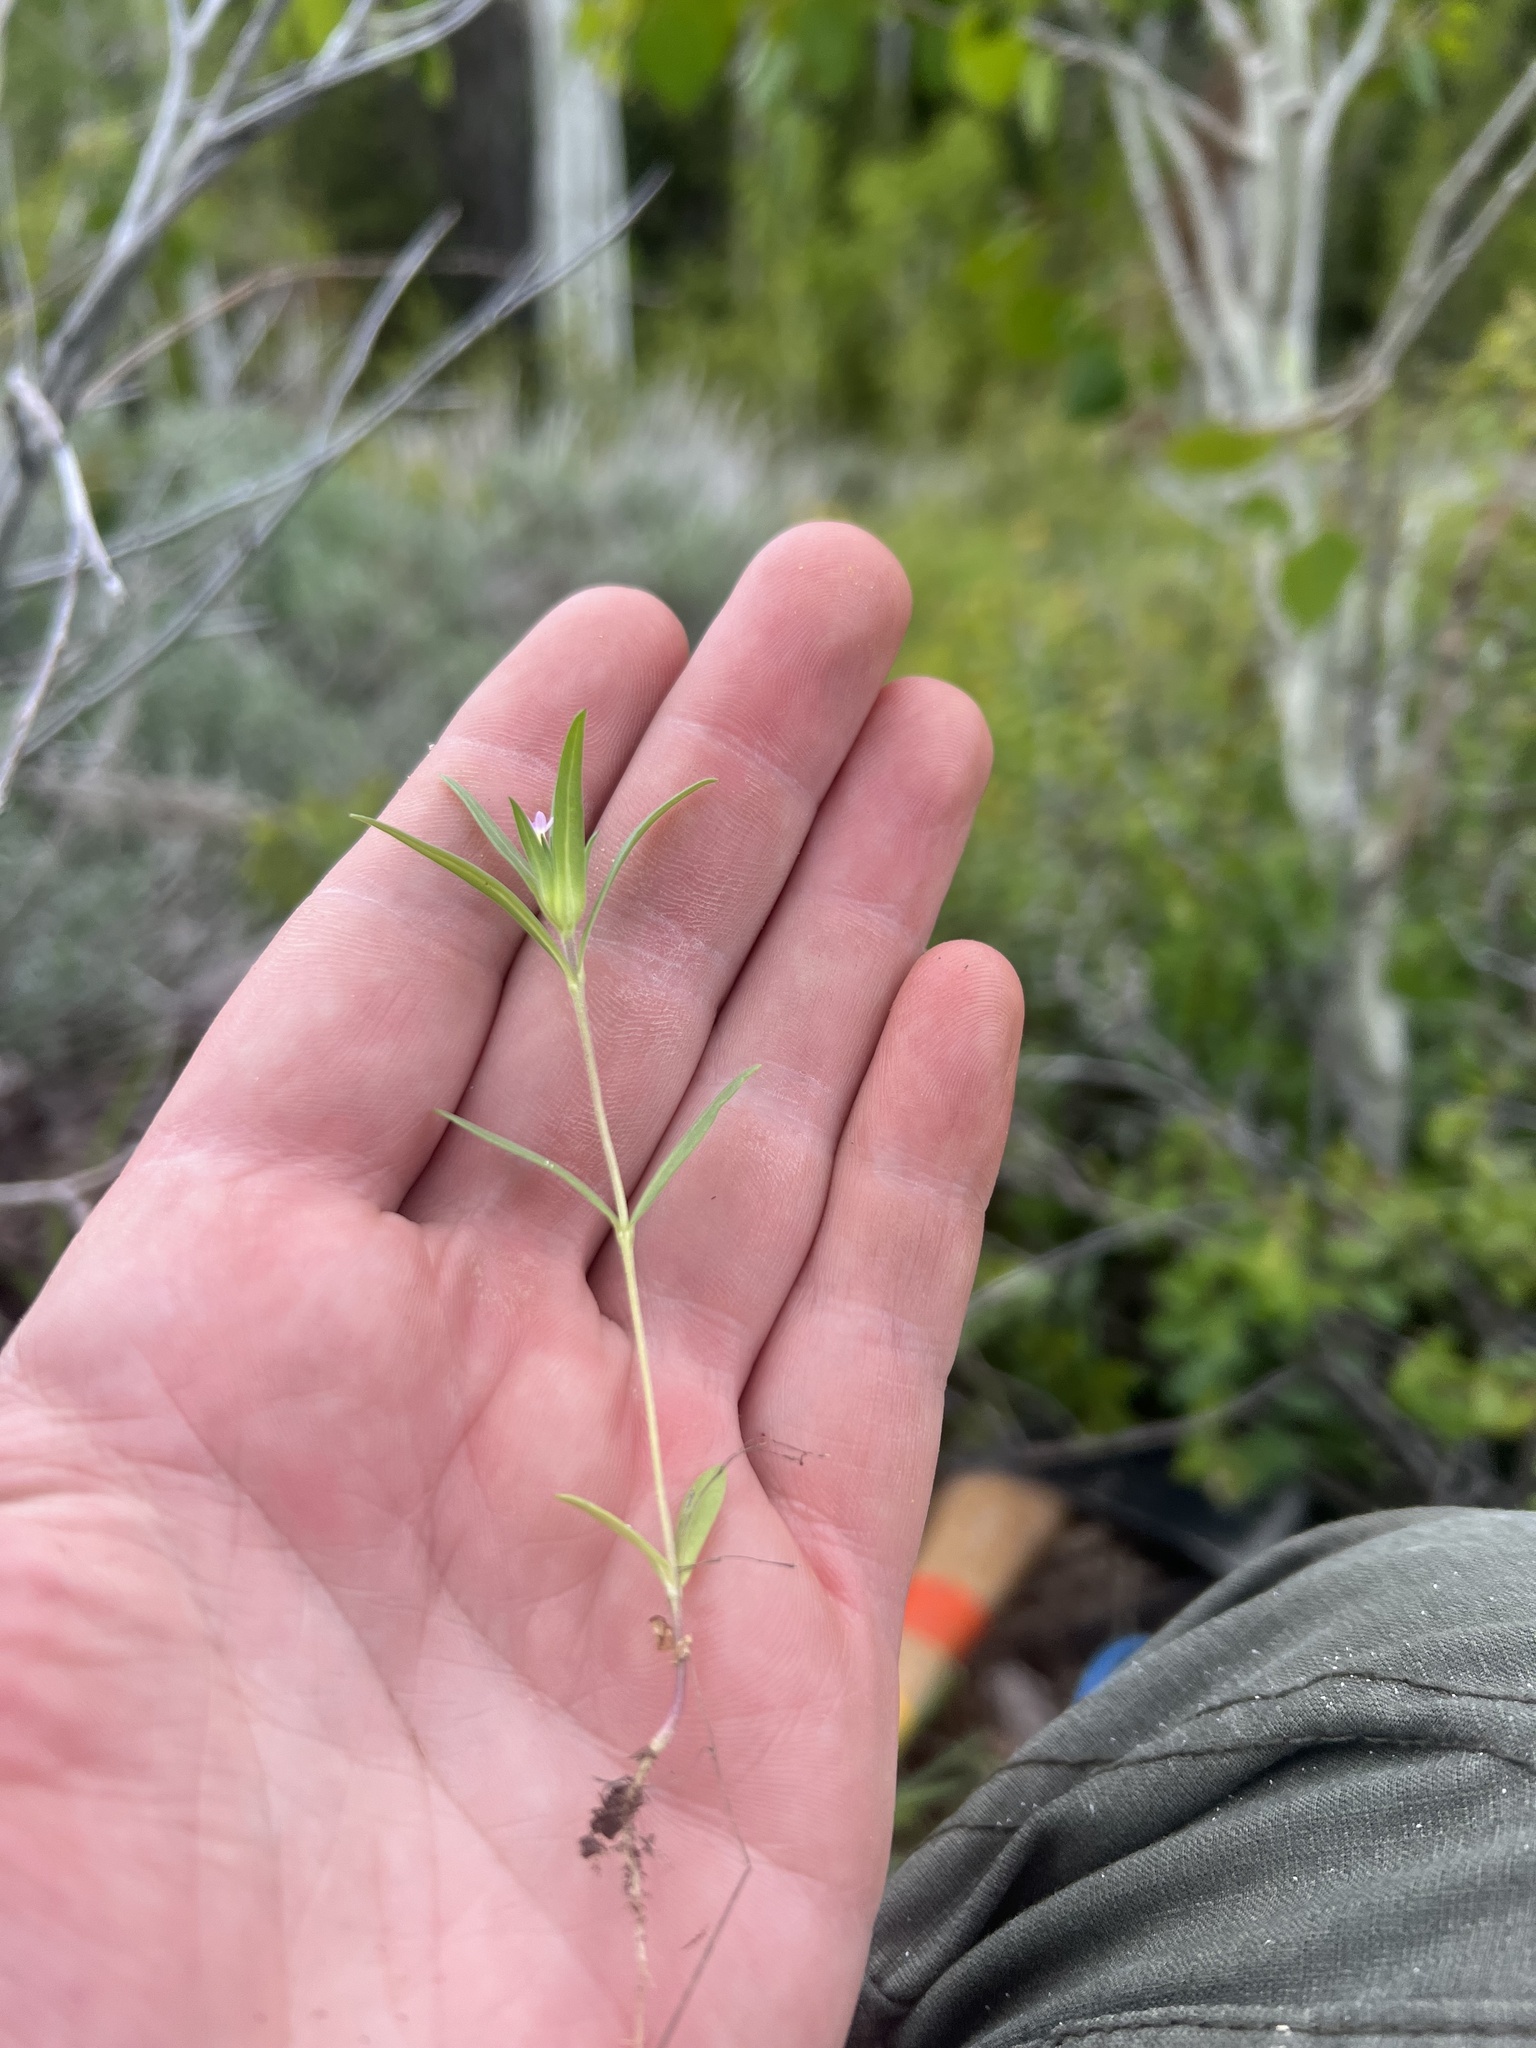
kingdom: Plantae
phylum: Tracheophyta
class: Magnoliopsida
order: Ericales
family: Polemoniaceae
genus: Collomia
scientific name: Collomia linearis
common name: Tiny trumpet
